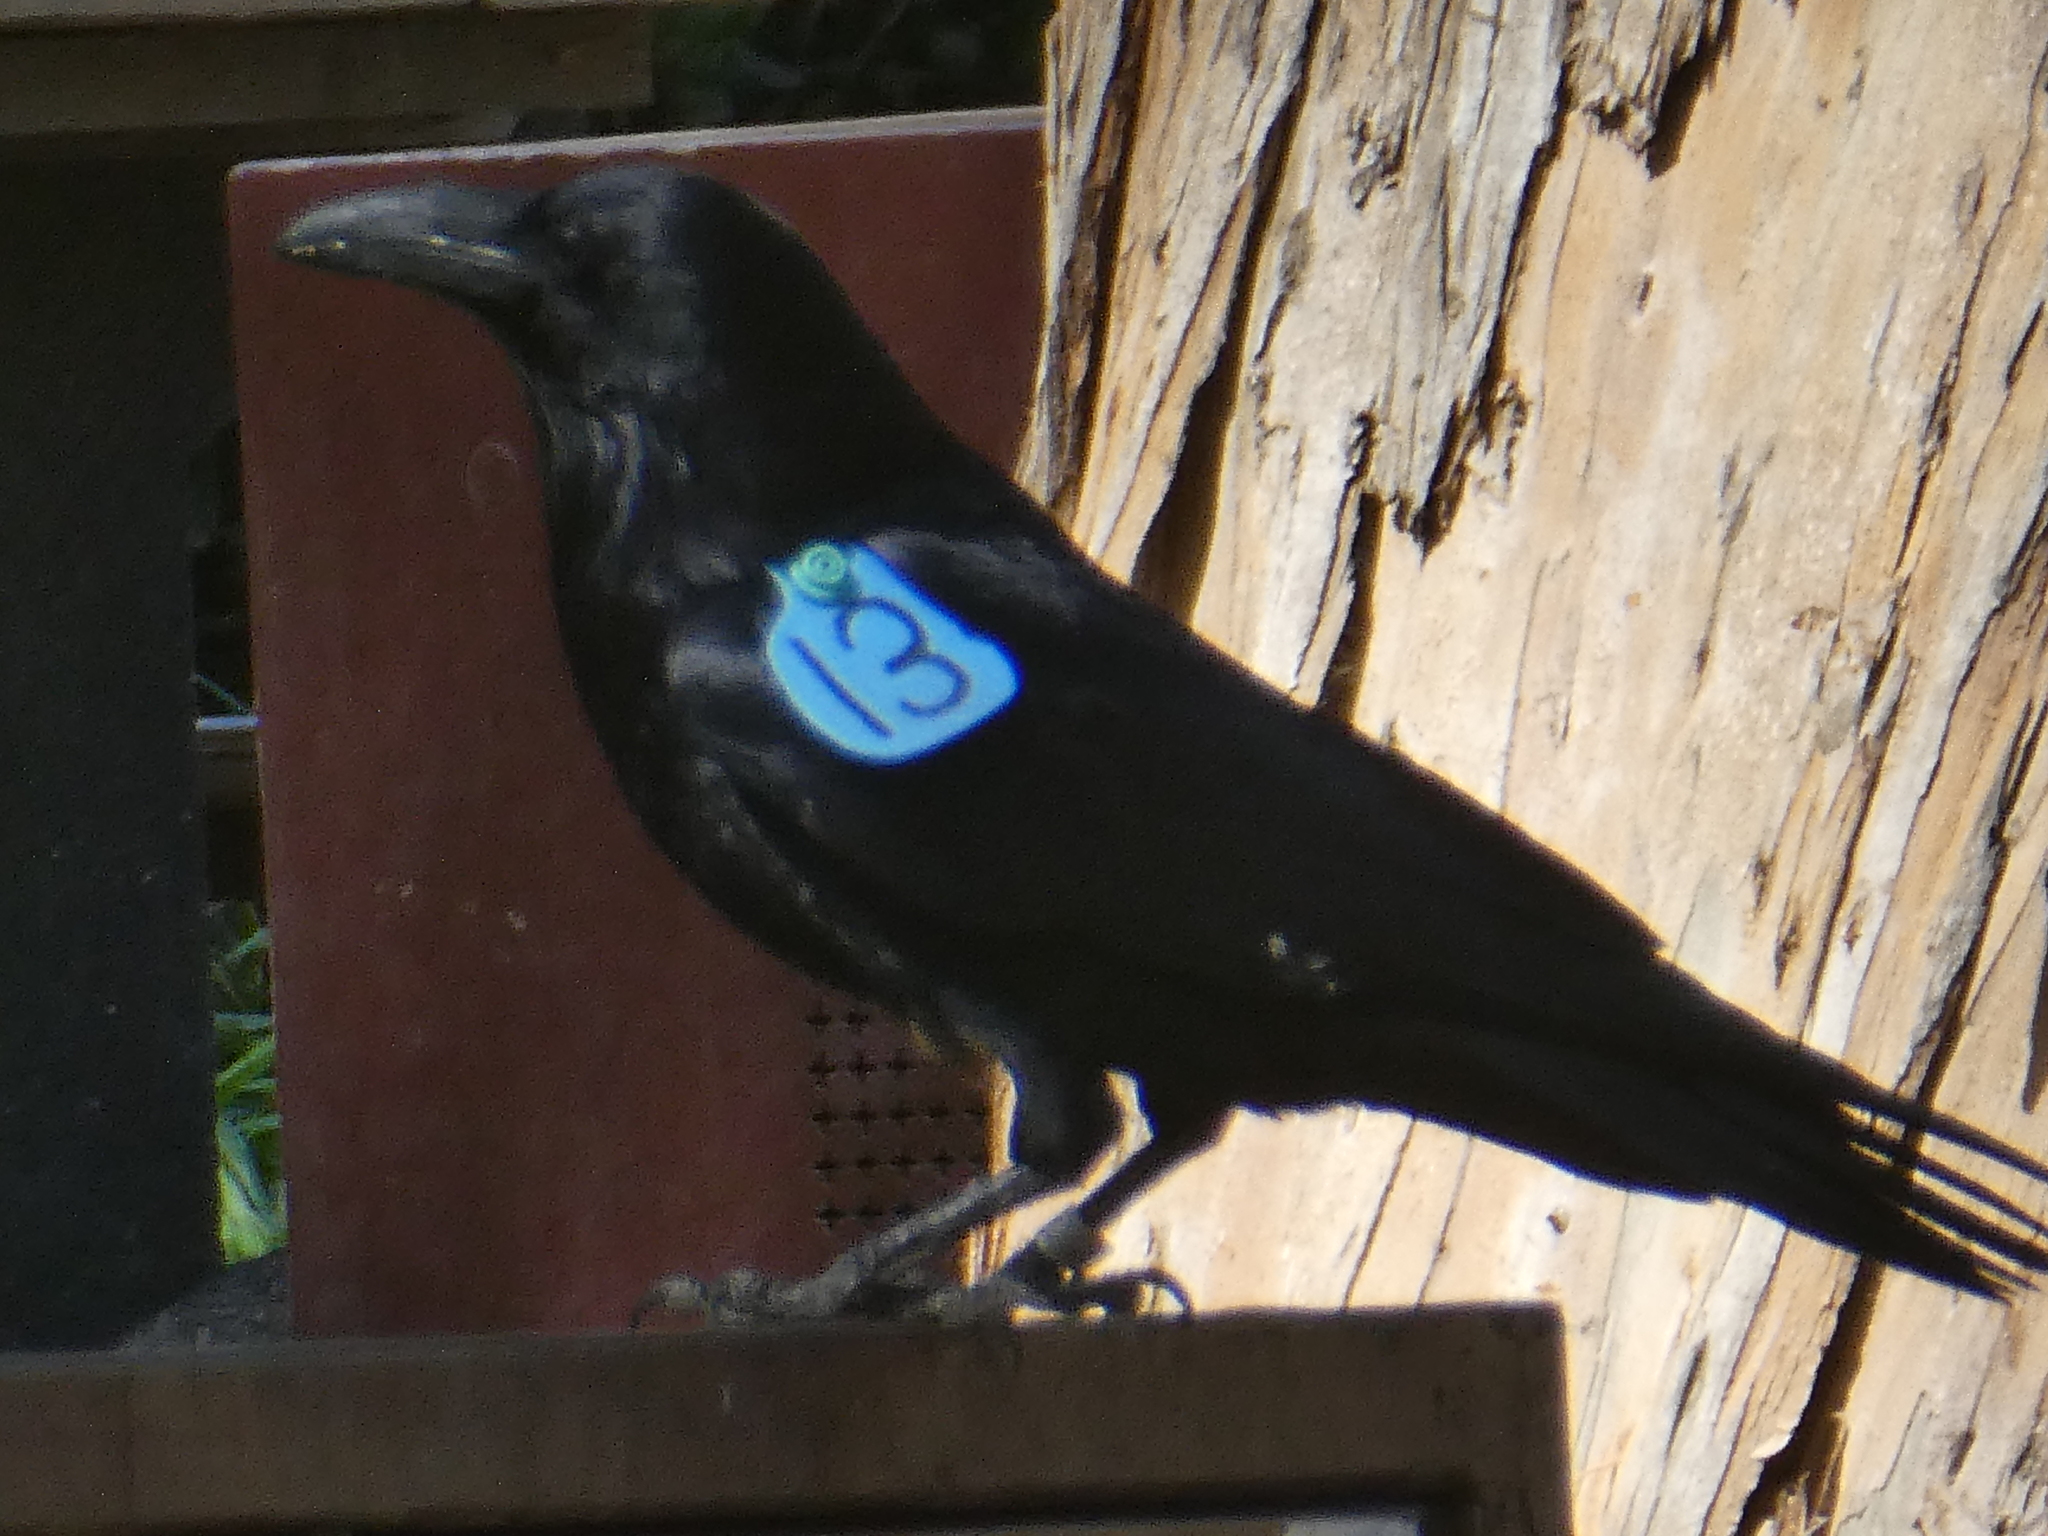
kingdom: Animalia
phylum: Chordata
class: Aves
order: Passeriformes
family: Corvidae
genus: Corvus
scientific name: Corvus corax
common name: Common raven
